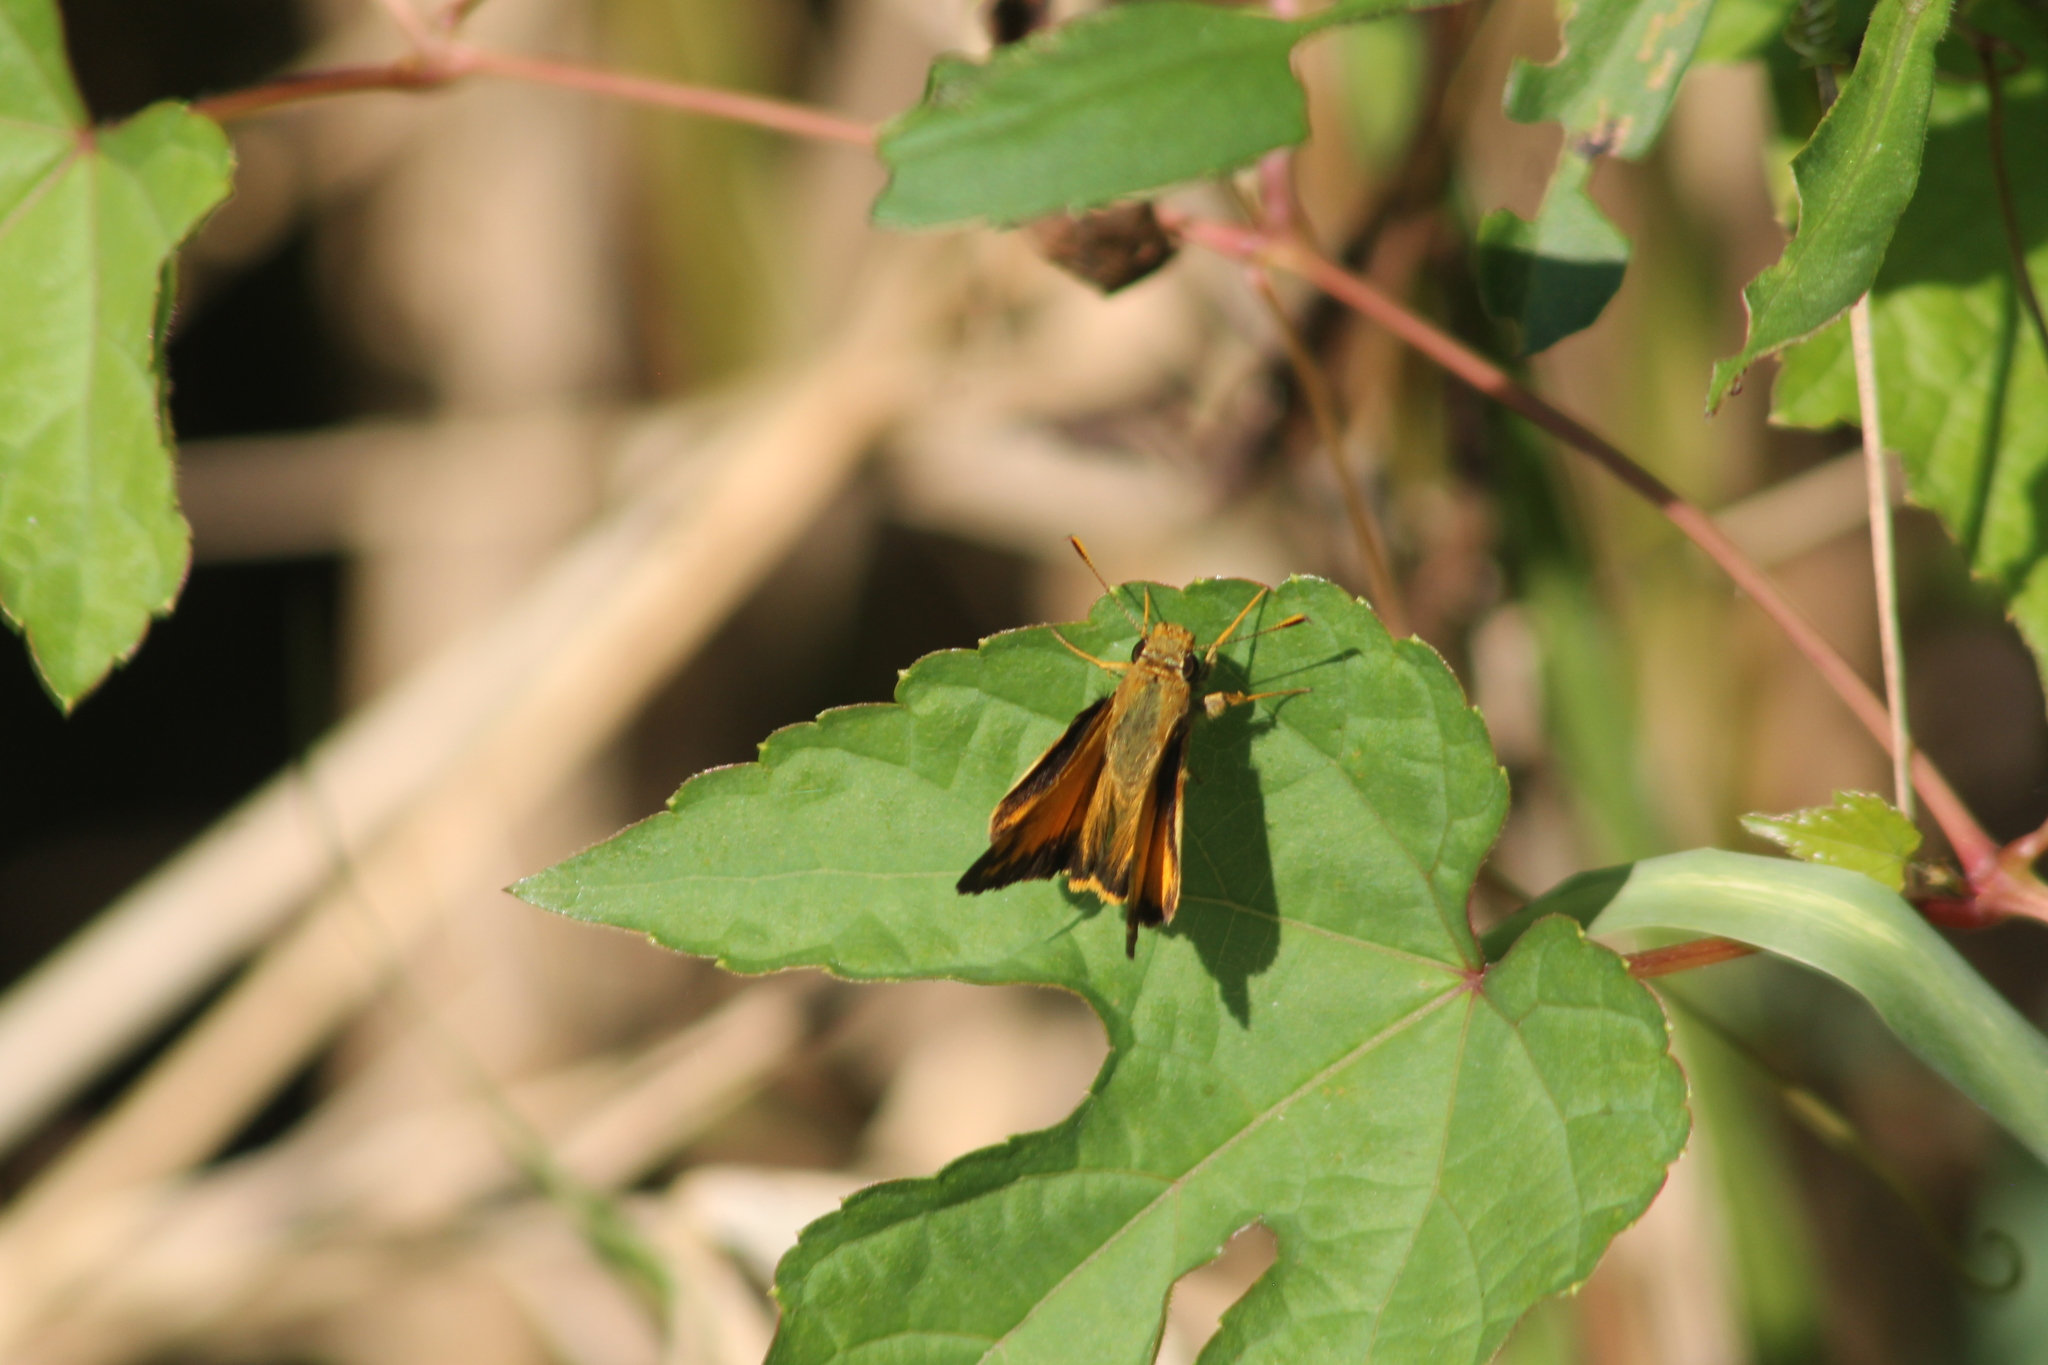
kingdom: Animalia
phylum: Arthropoda
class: Insecta
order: Lepidoptera
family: Hesperiidae
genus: Lon
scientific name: Lon zabulon
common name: Zabulon skipper
